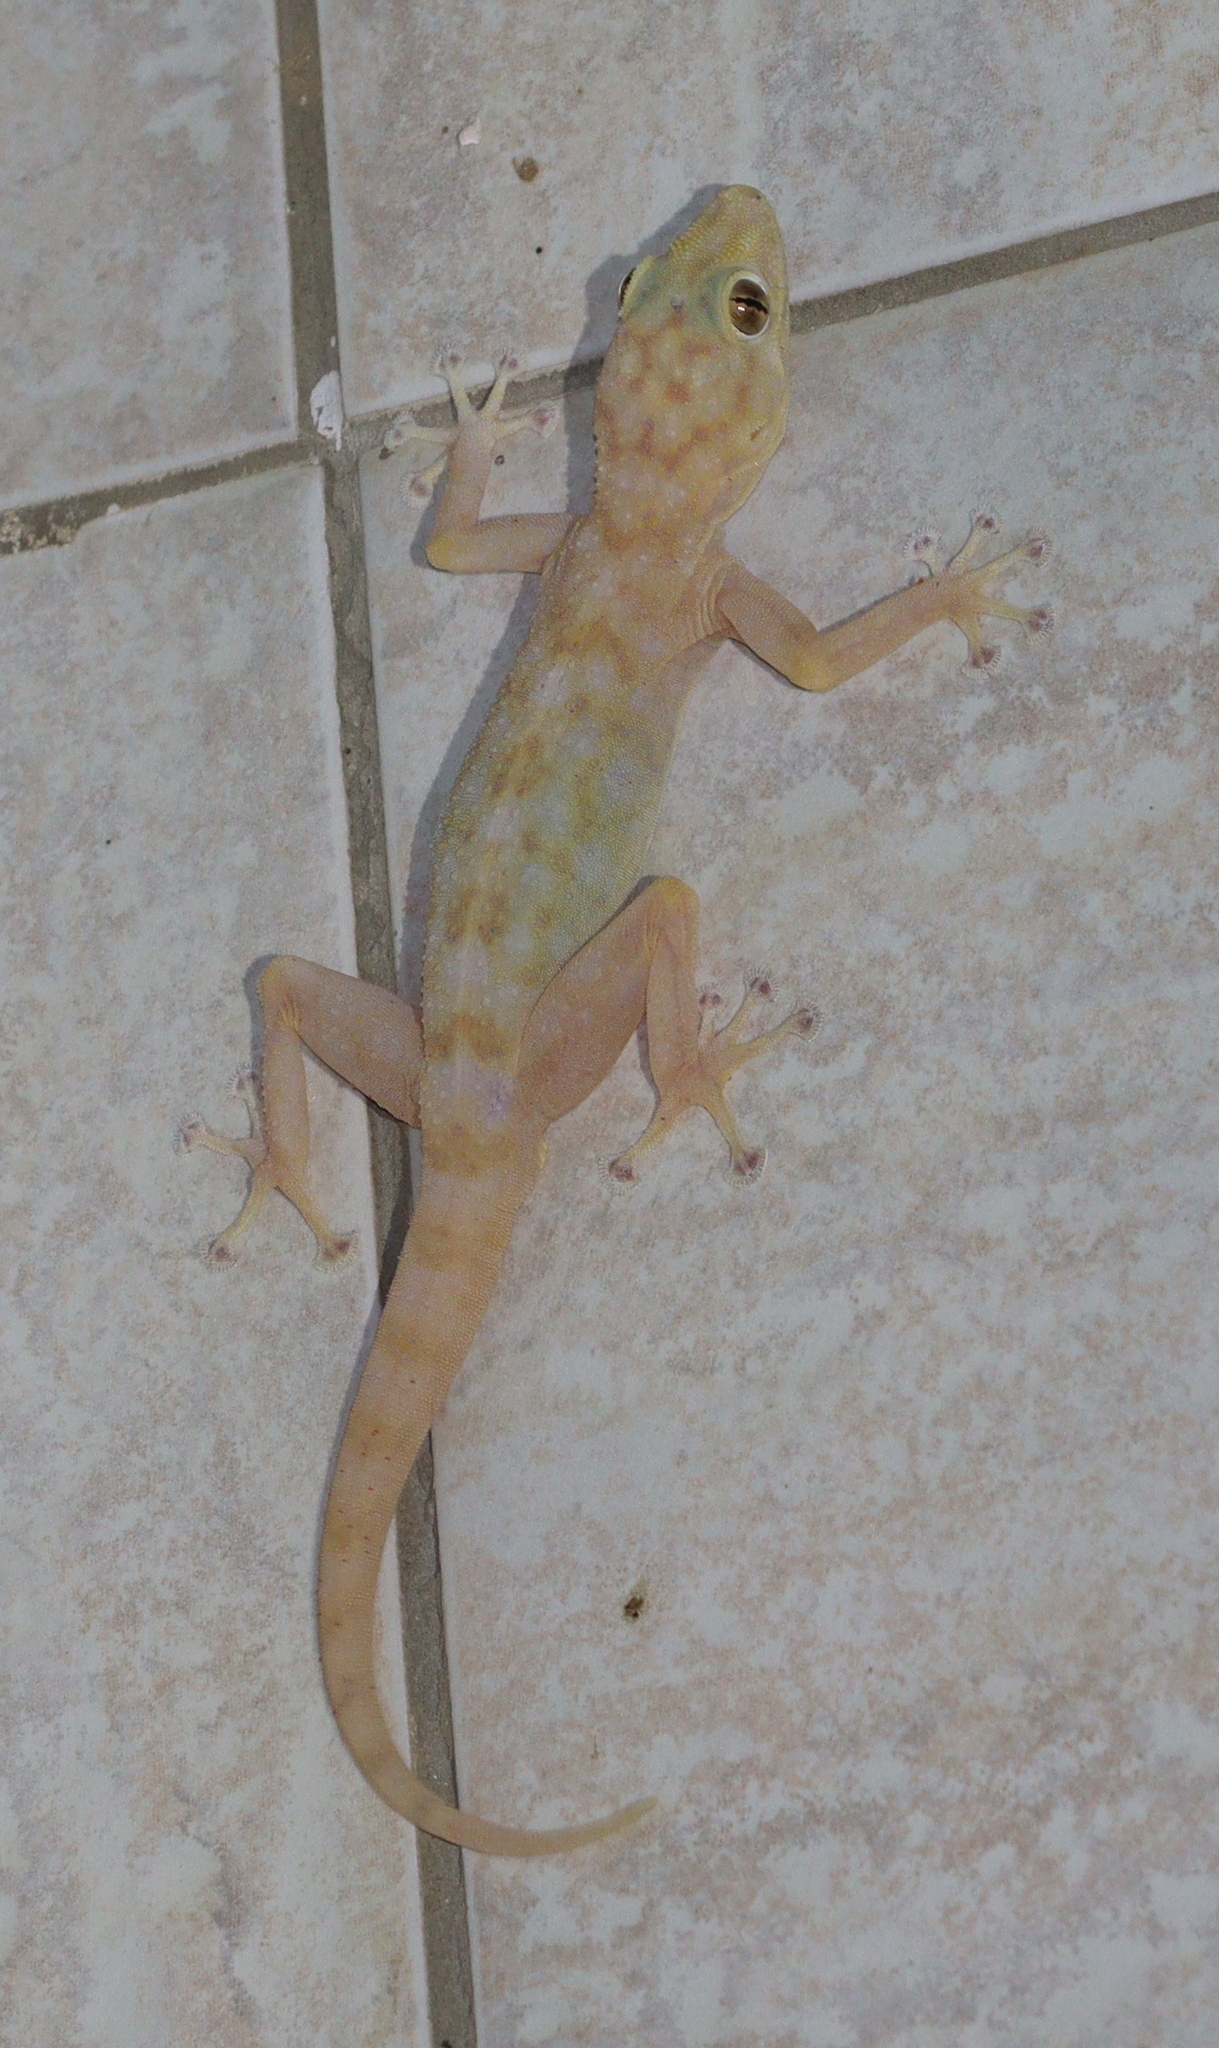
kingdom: Animalia
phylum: Chordata
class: Squamata
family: Phyllodactylidae
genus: Ptyodactylus
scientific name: Ptyodactylus hasselquistii
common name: Hasselquist’s fan-footed gecko
